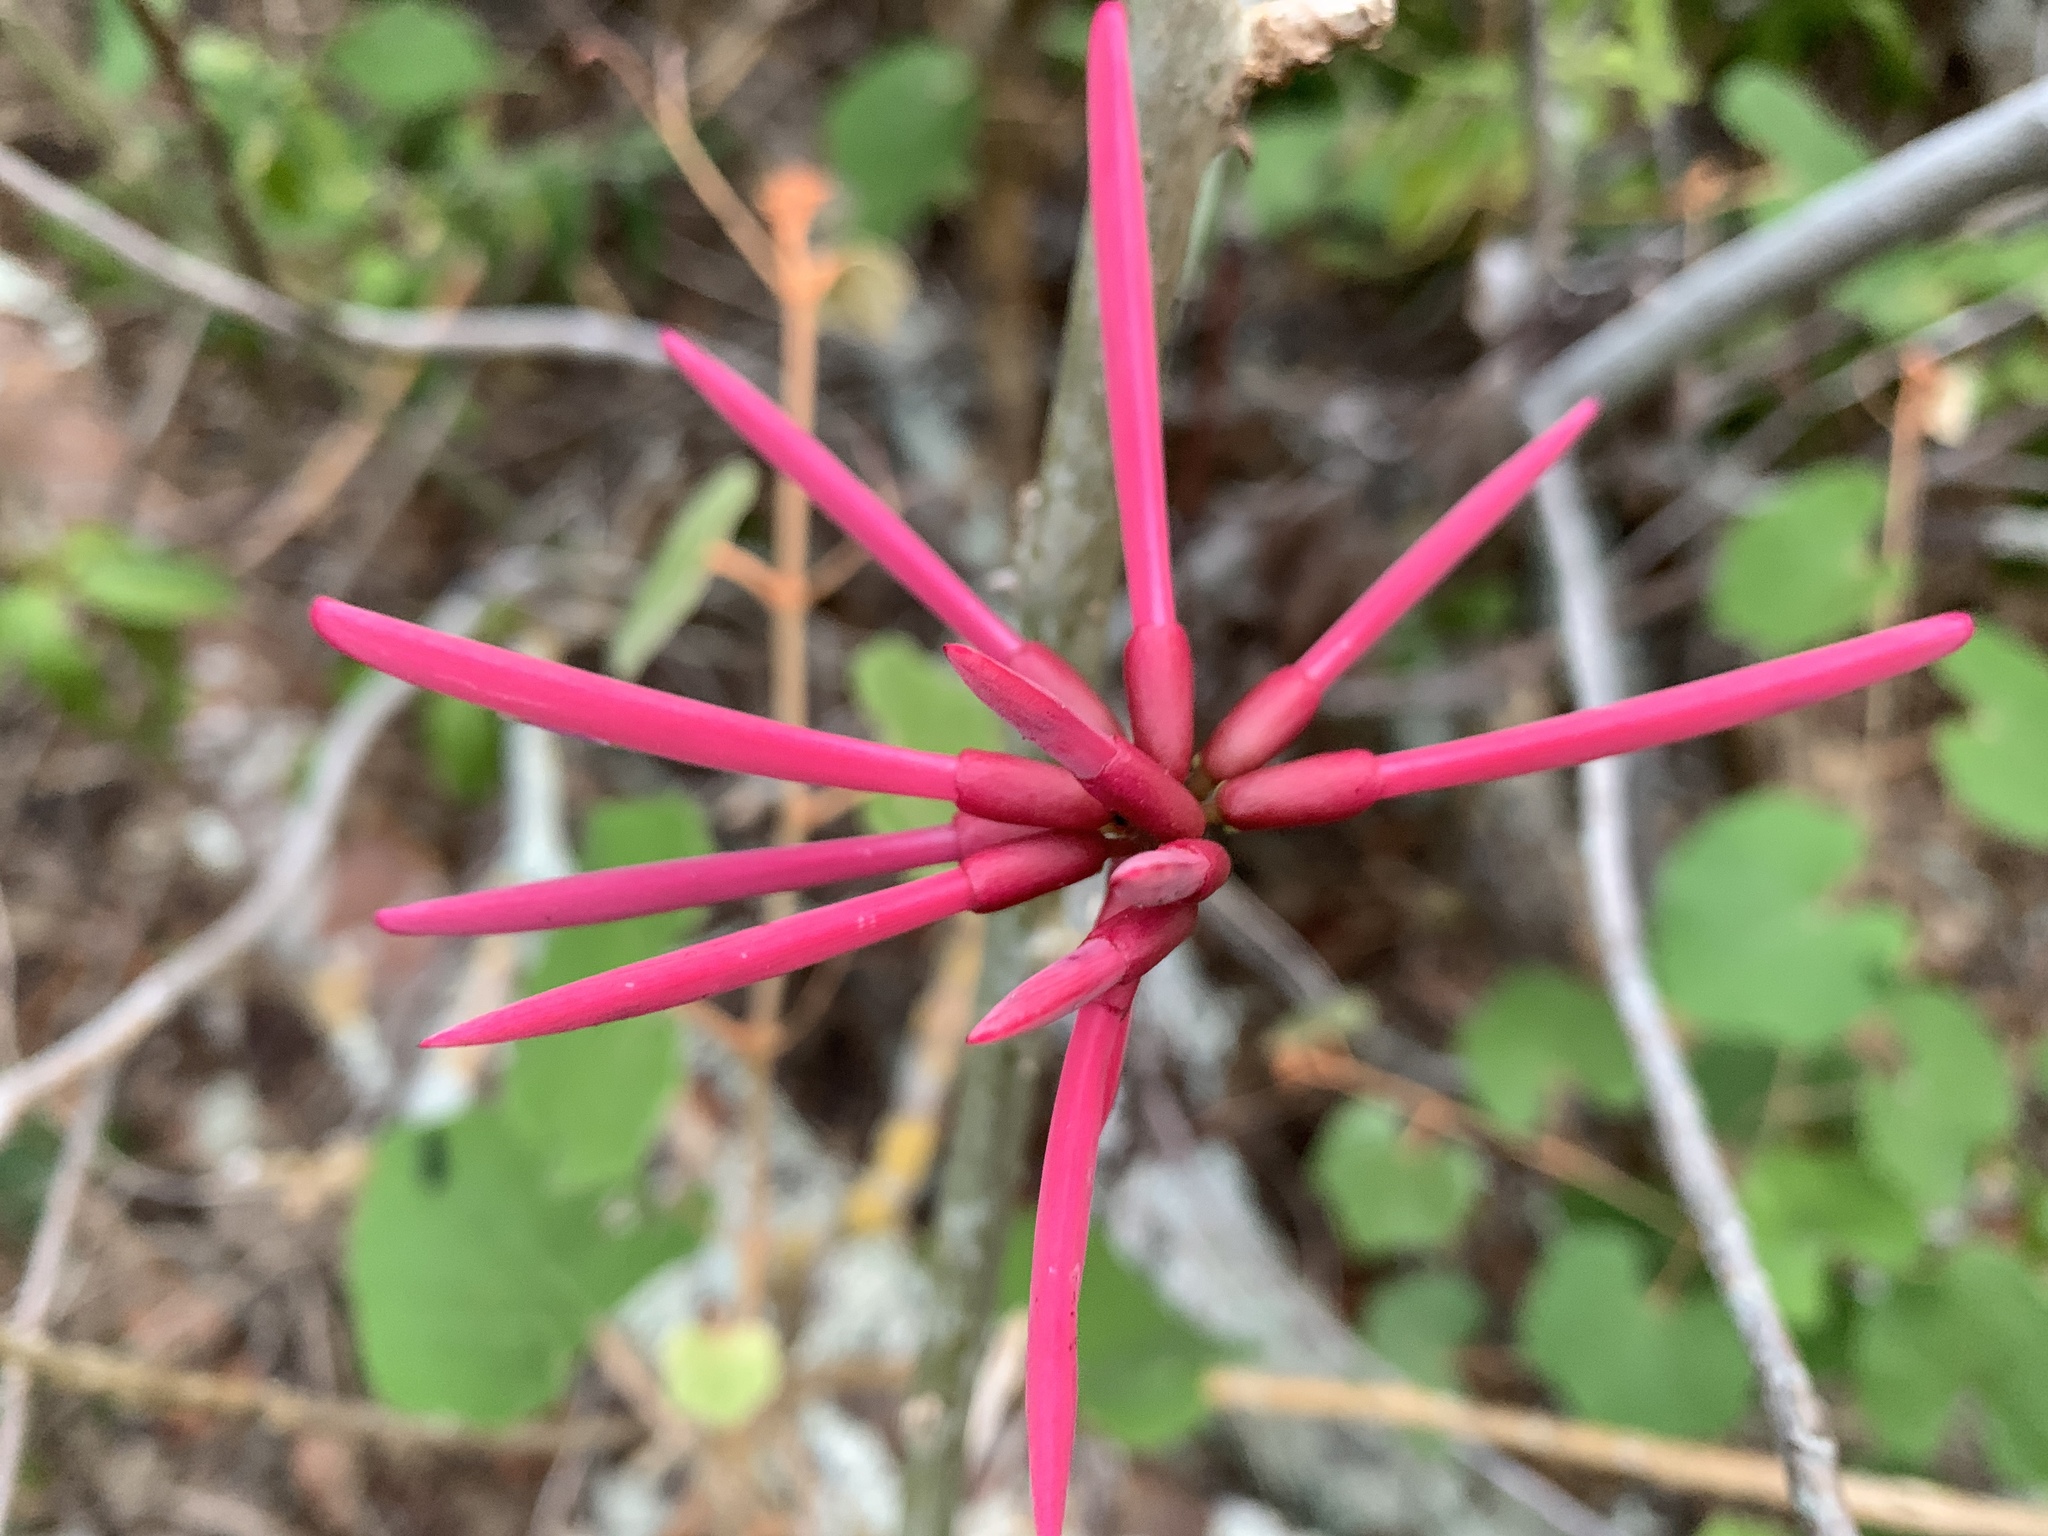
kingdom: Plantae
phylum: Tracheophyta
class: Magnoliopsida
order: Fabales
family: Fabaceae
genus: Erythrina
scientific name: Erythrina herbacea
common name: Coral-bean
